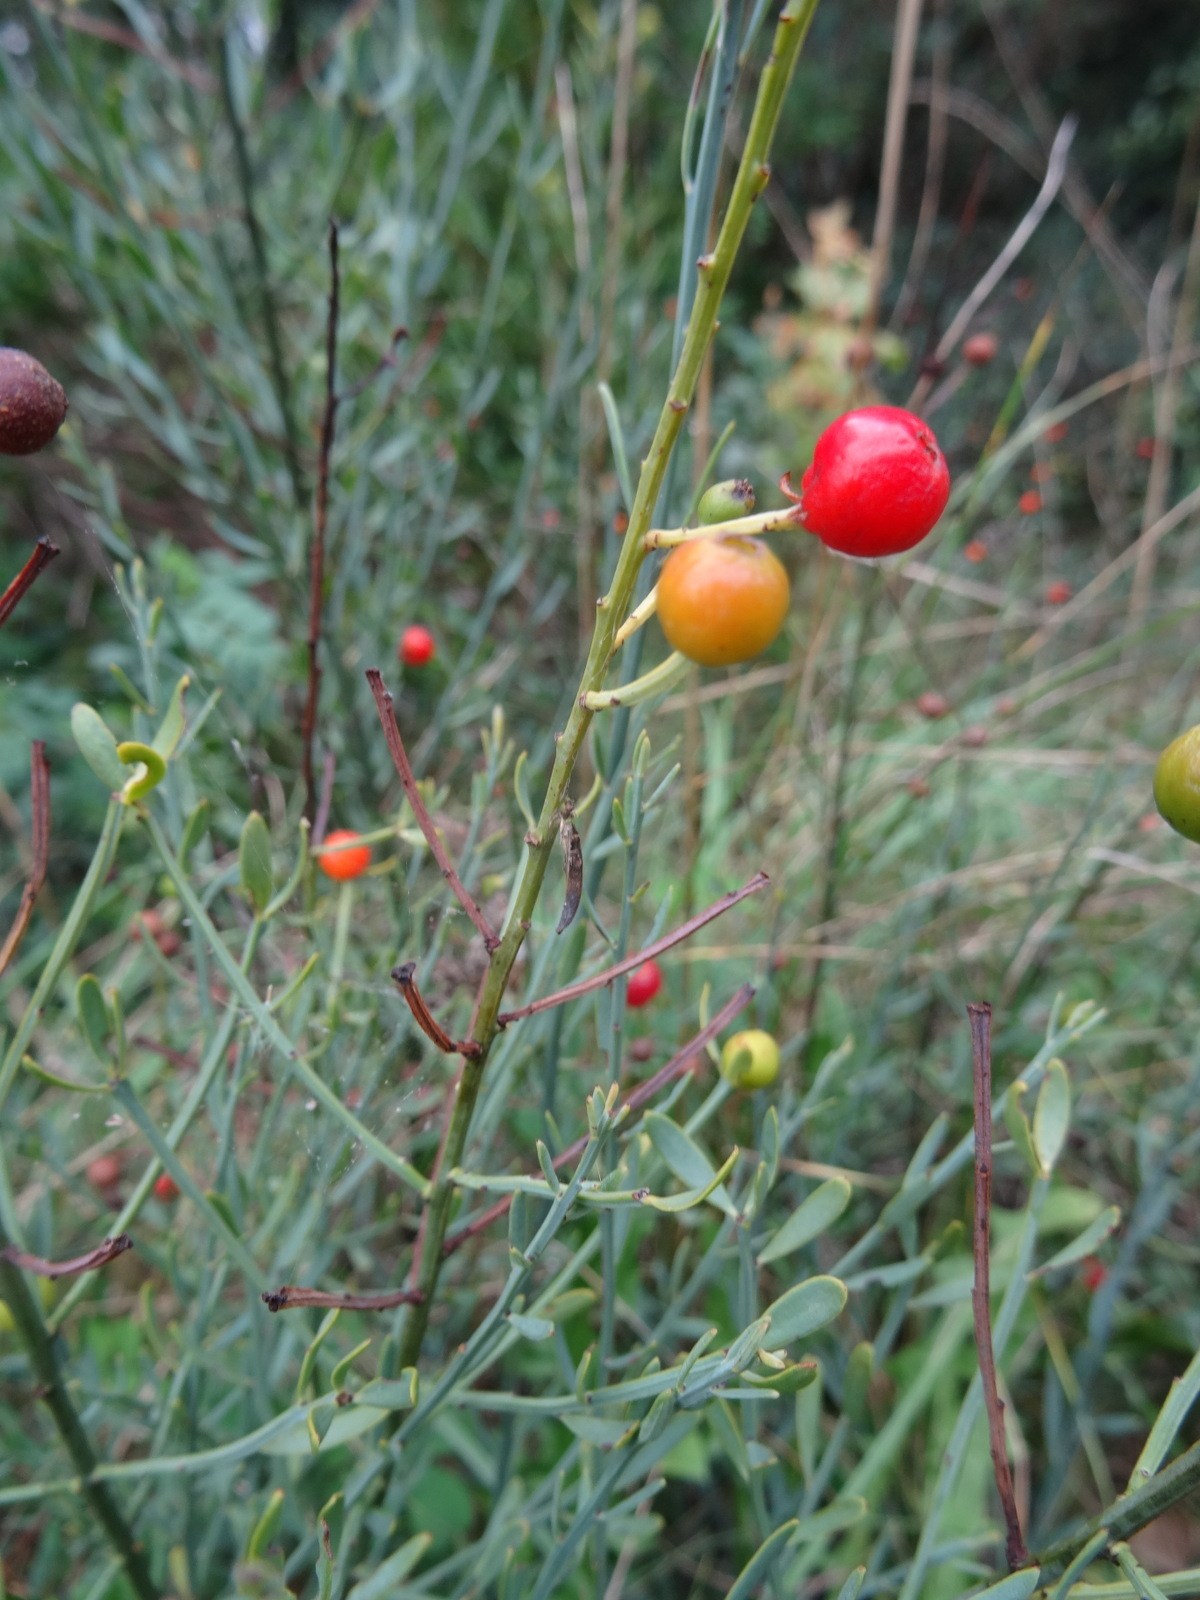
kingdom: Plantae
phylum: Tracheophyta
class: Magnoliopsida
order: Santalales
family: Santalaceae
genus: Osyris
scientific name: Osyris alba
